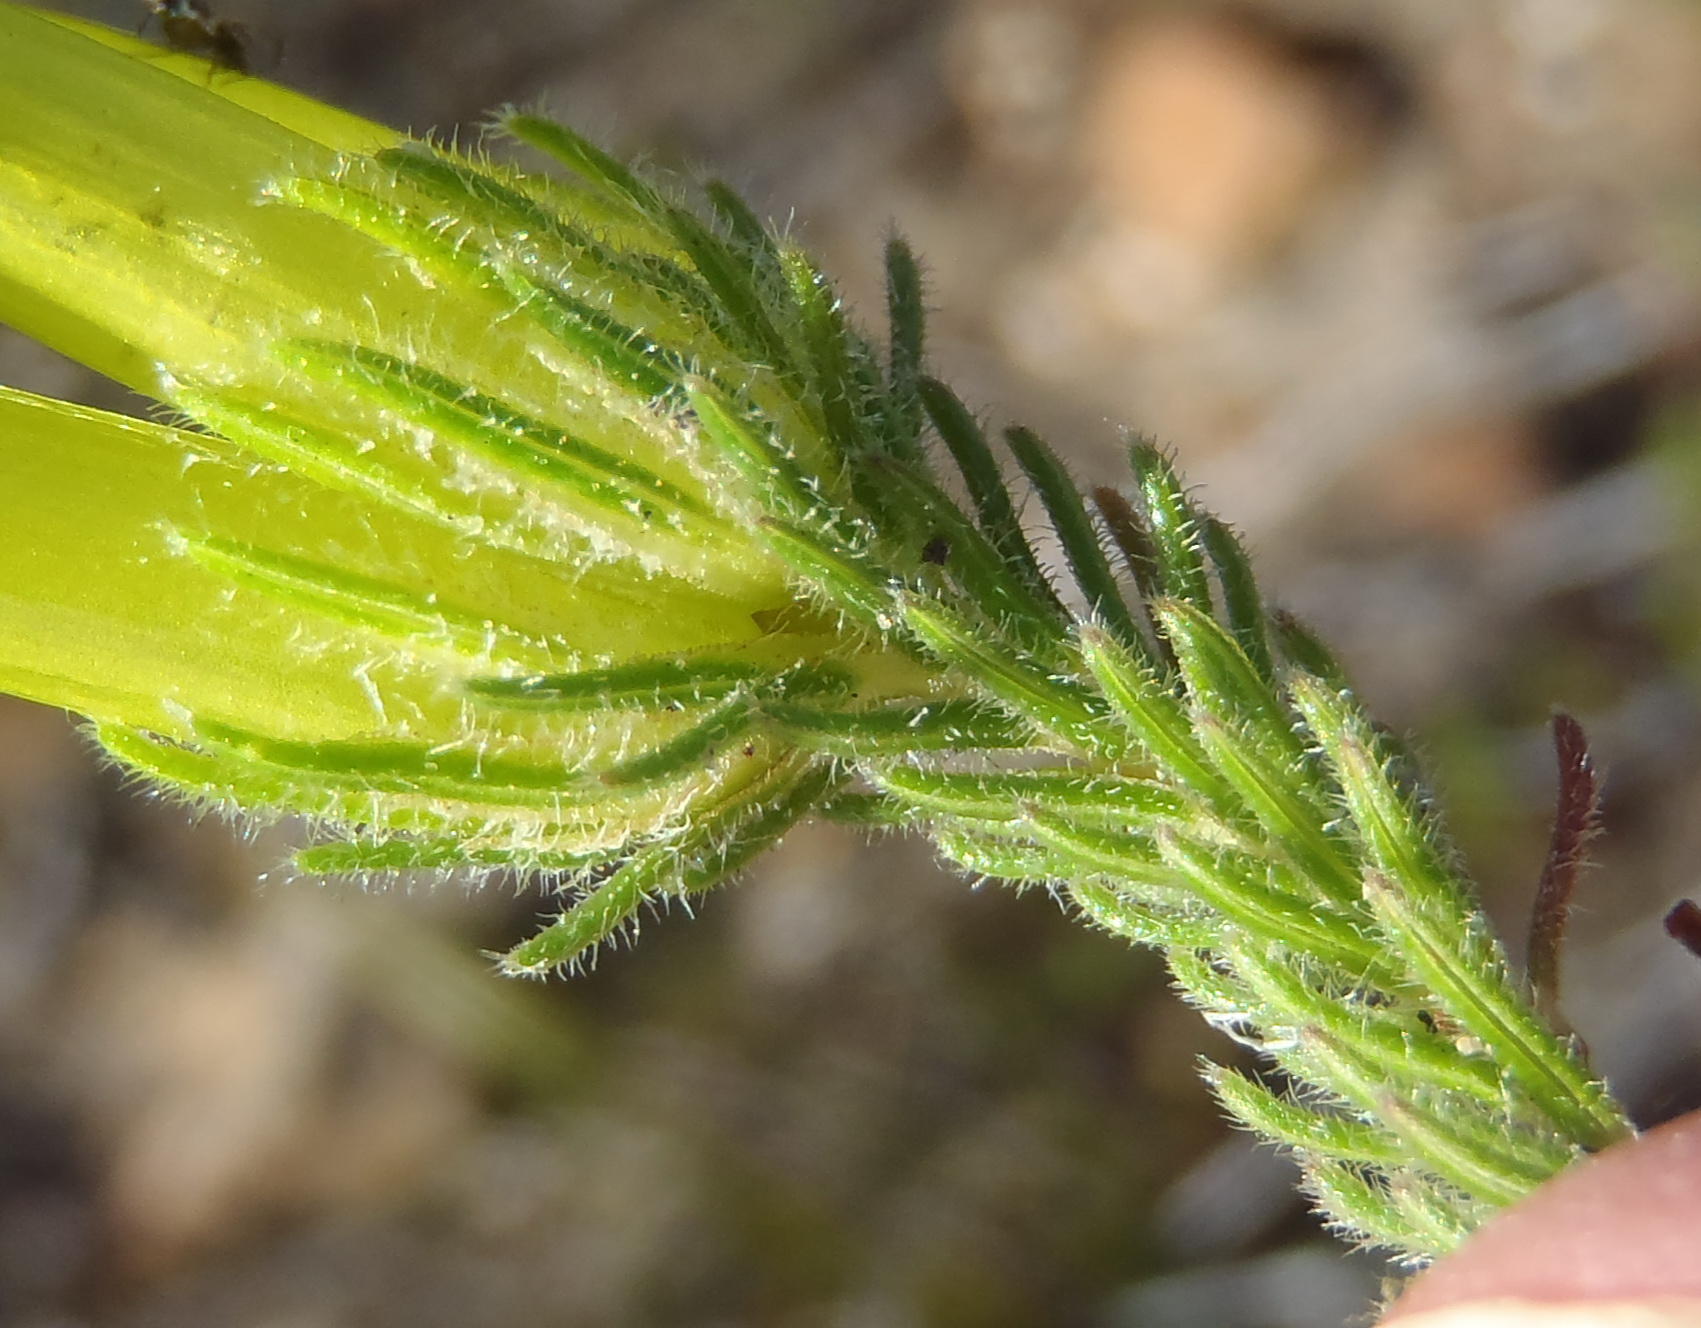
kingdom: Plantae
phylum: Tracheophyta
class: Magnoliopsida
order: Ericales
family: Ericaceae
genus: Erica
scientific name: Erica unicolor
